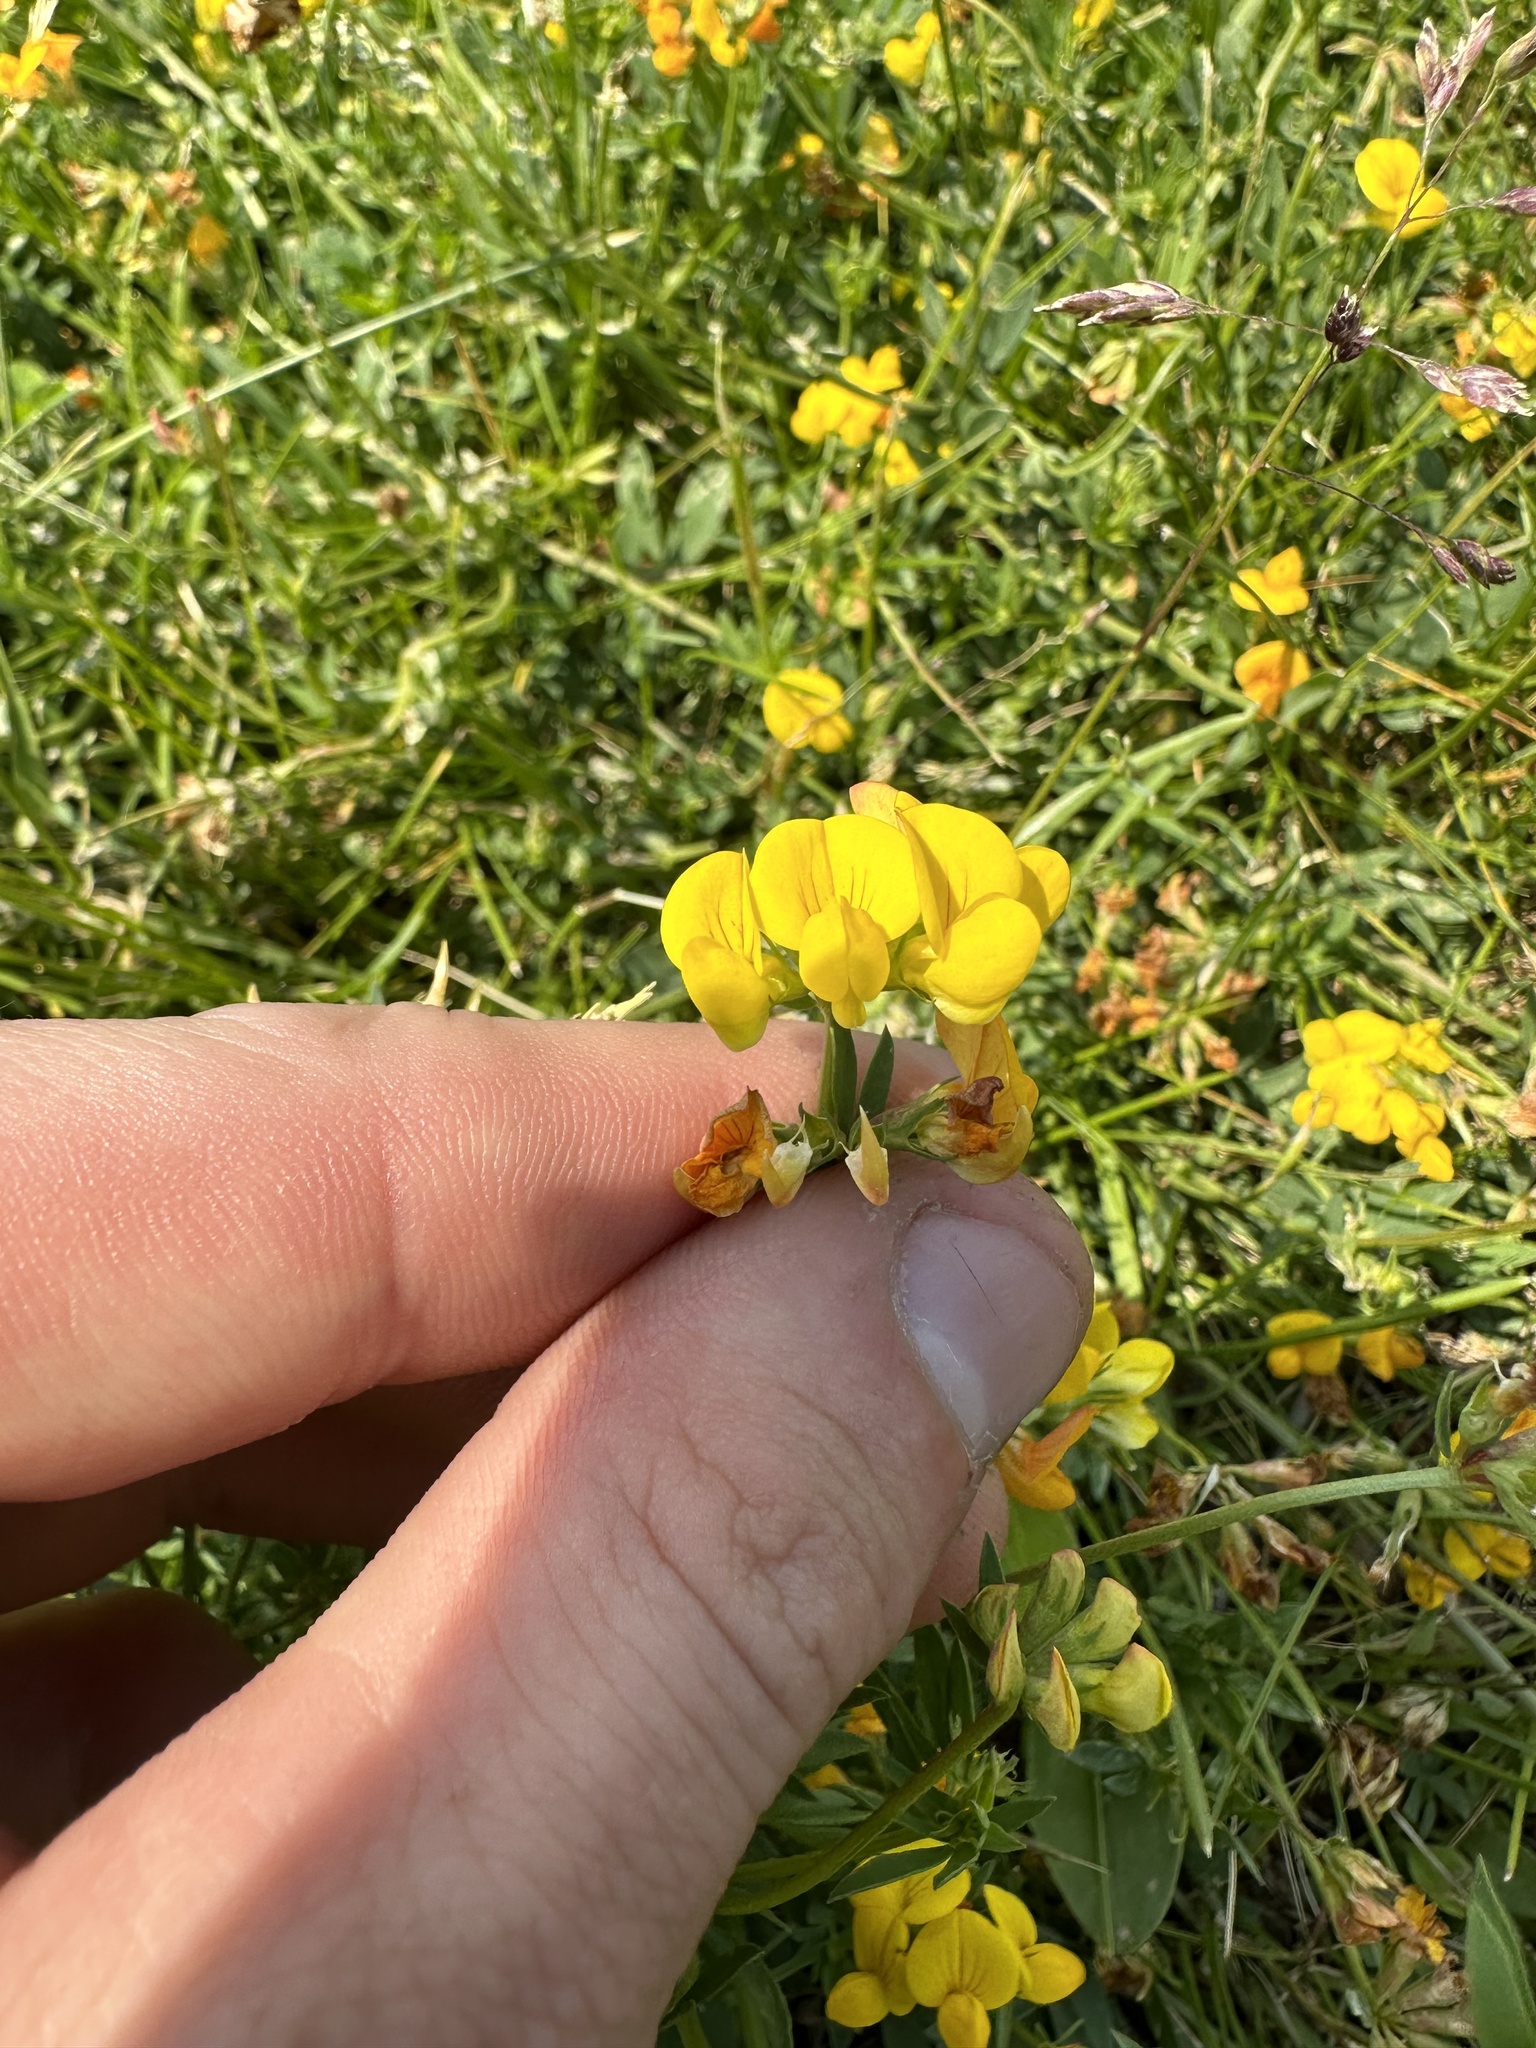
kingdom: Plantae
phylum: Tracheophyta
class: Magnoliopsida
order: Fabales
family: Fabaceae
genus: Lotus
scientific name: Lotus corniculatus
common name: Common bird's-foot-trefoil
